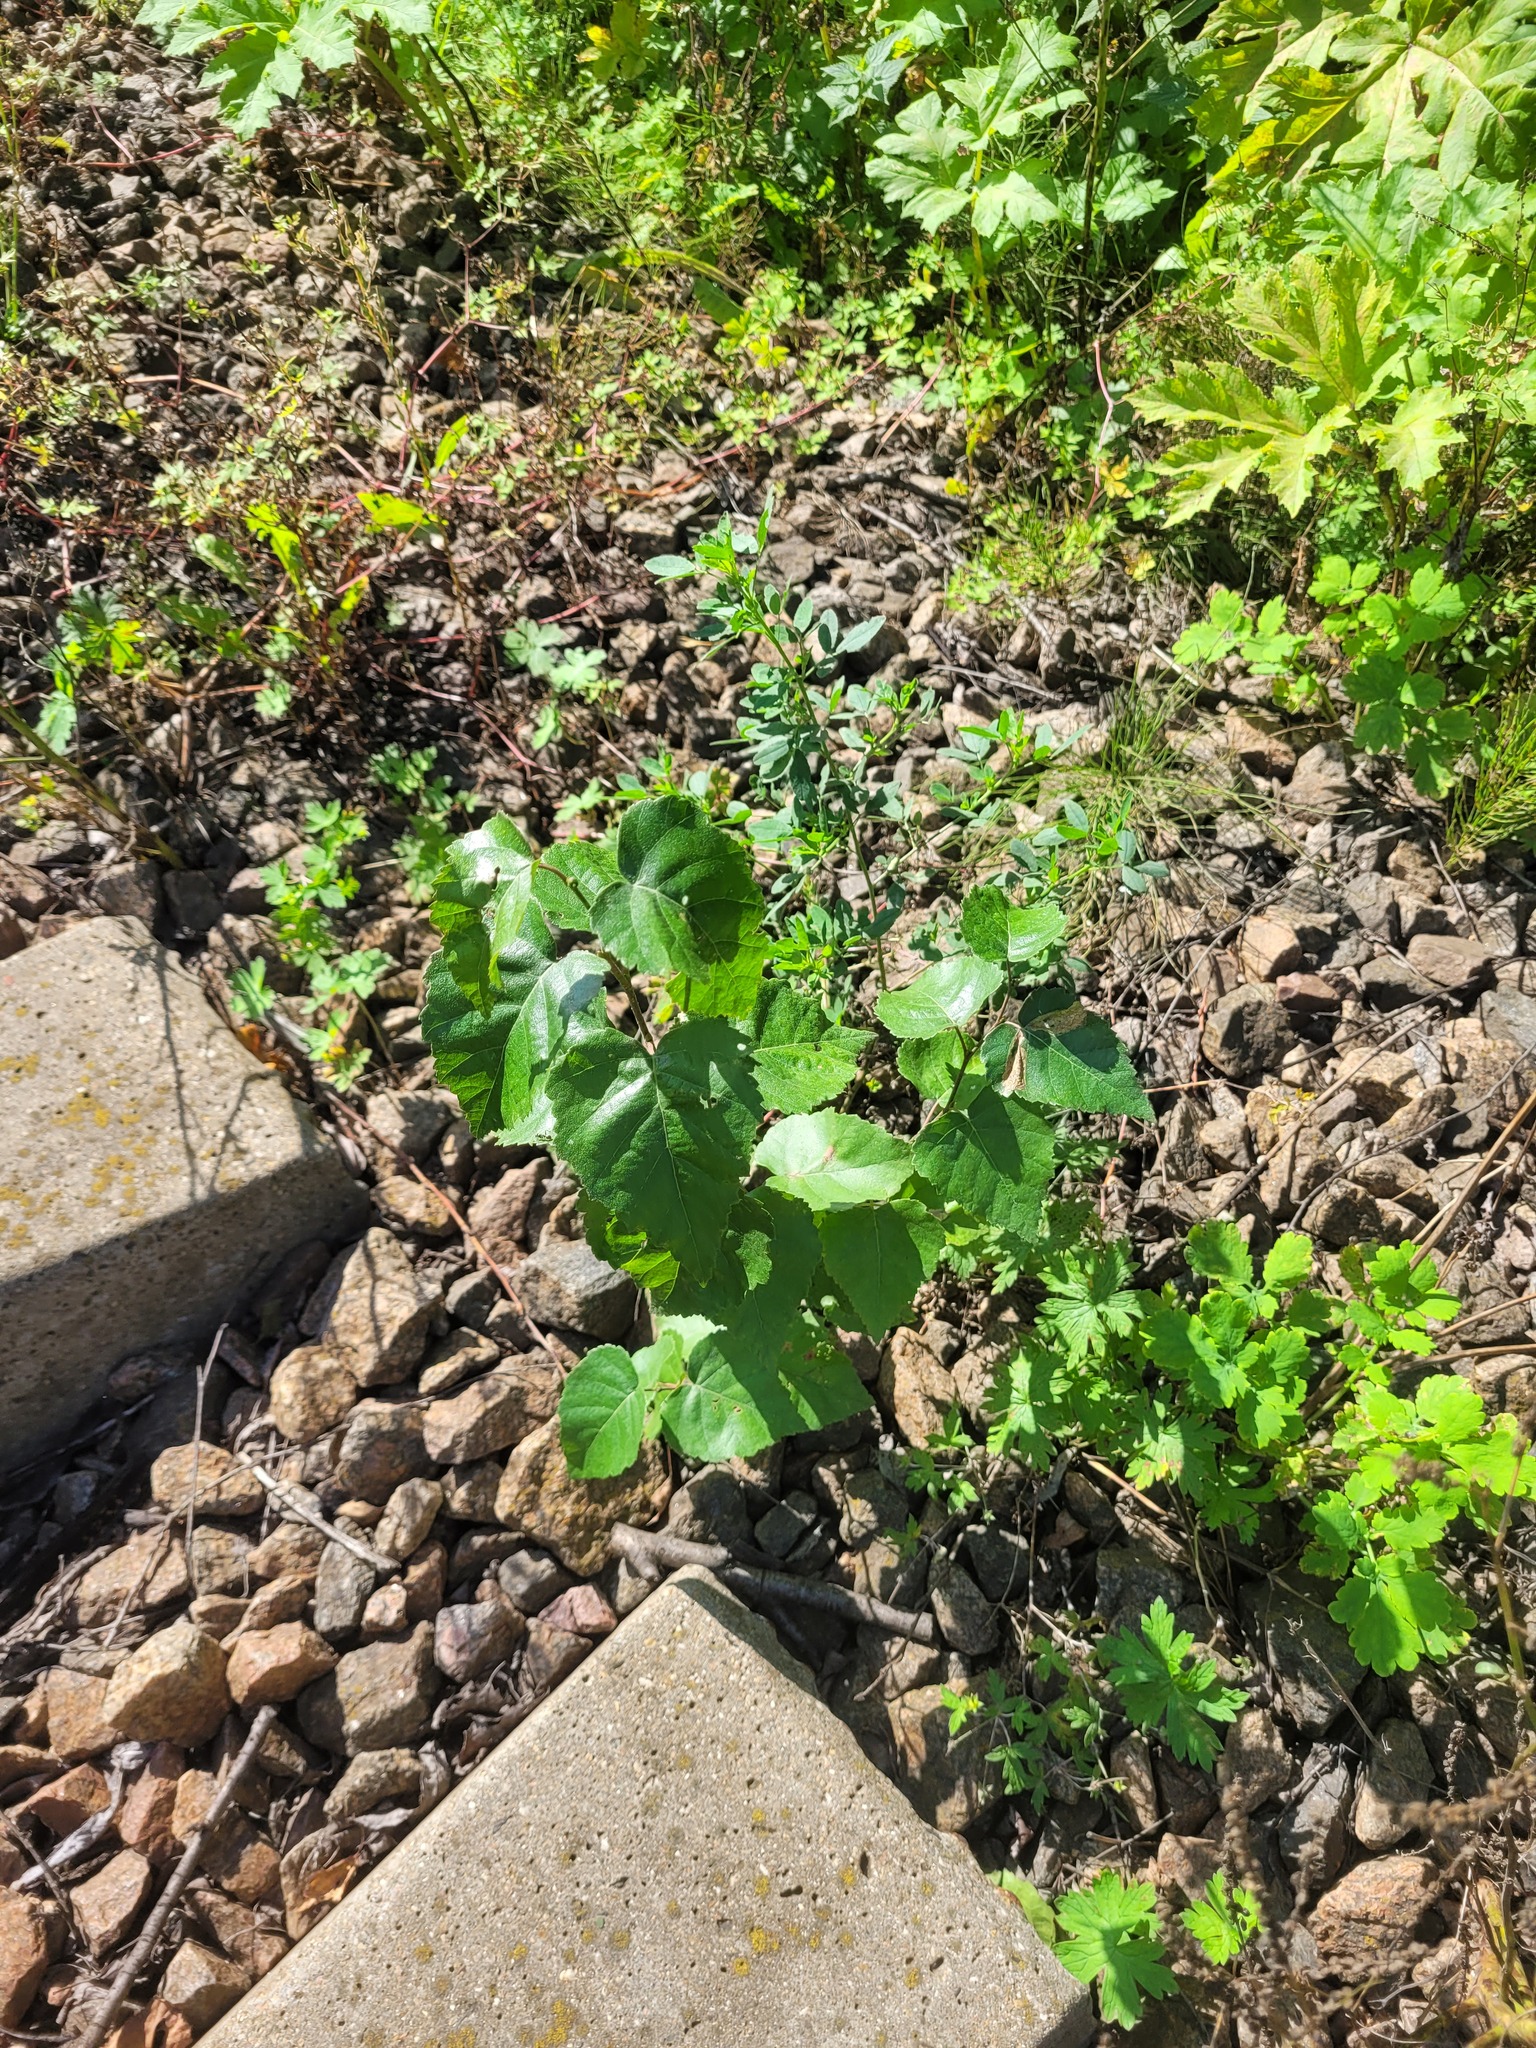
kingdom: Plantae
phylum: Tracheophyta
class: Magnoliopsida
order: Fagales
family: Betulaceae
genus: Betula
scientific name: Betula pendula
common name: Silver birch
